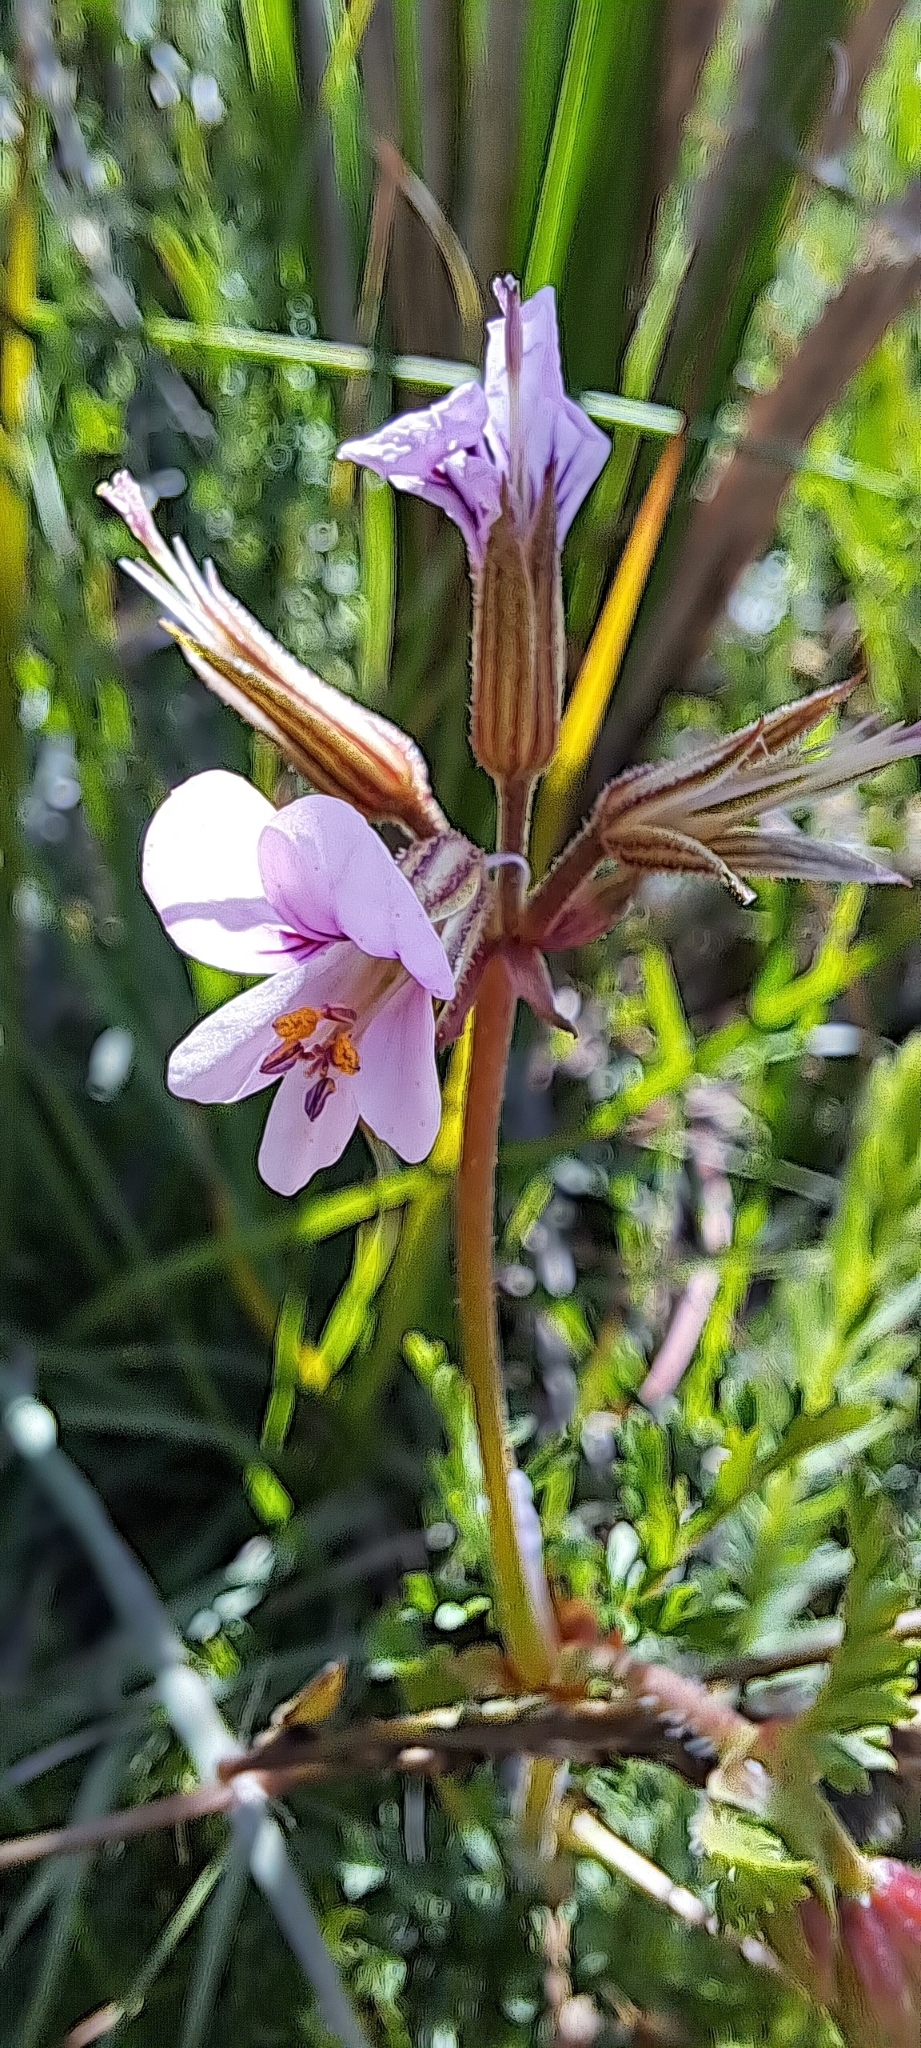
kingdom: Plantae
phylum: Tracheophyta
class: Magnoliopsida
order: Geraniales
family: Geraniaceae
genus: Pelargonium
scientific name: Pelargonium myrrhifolium
